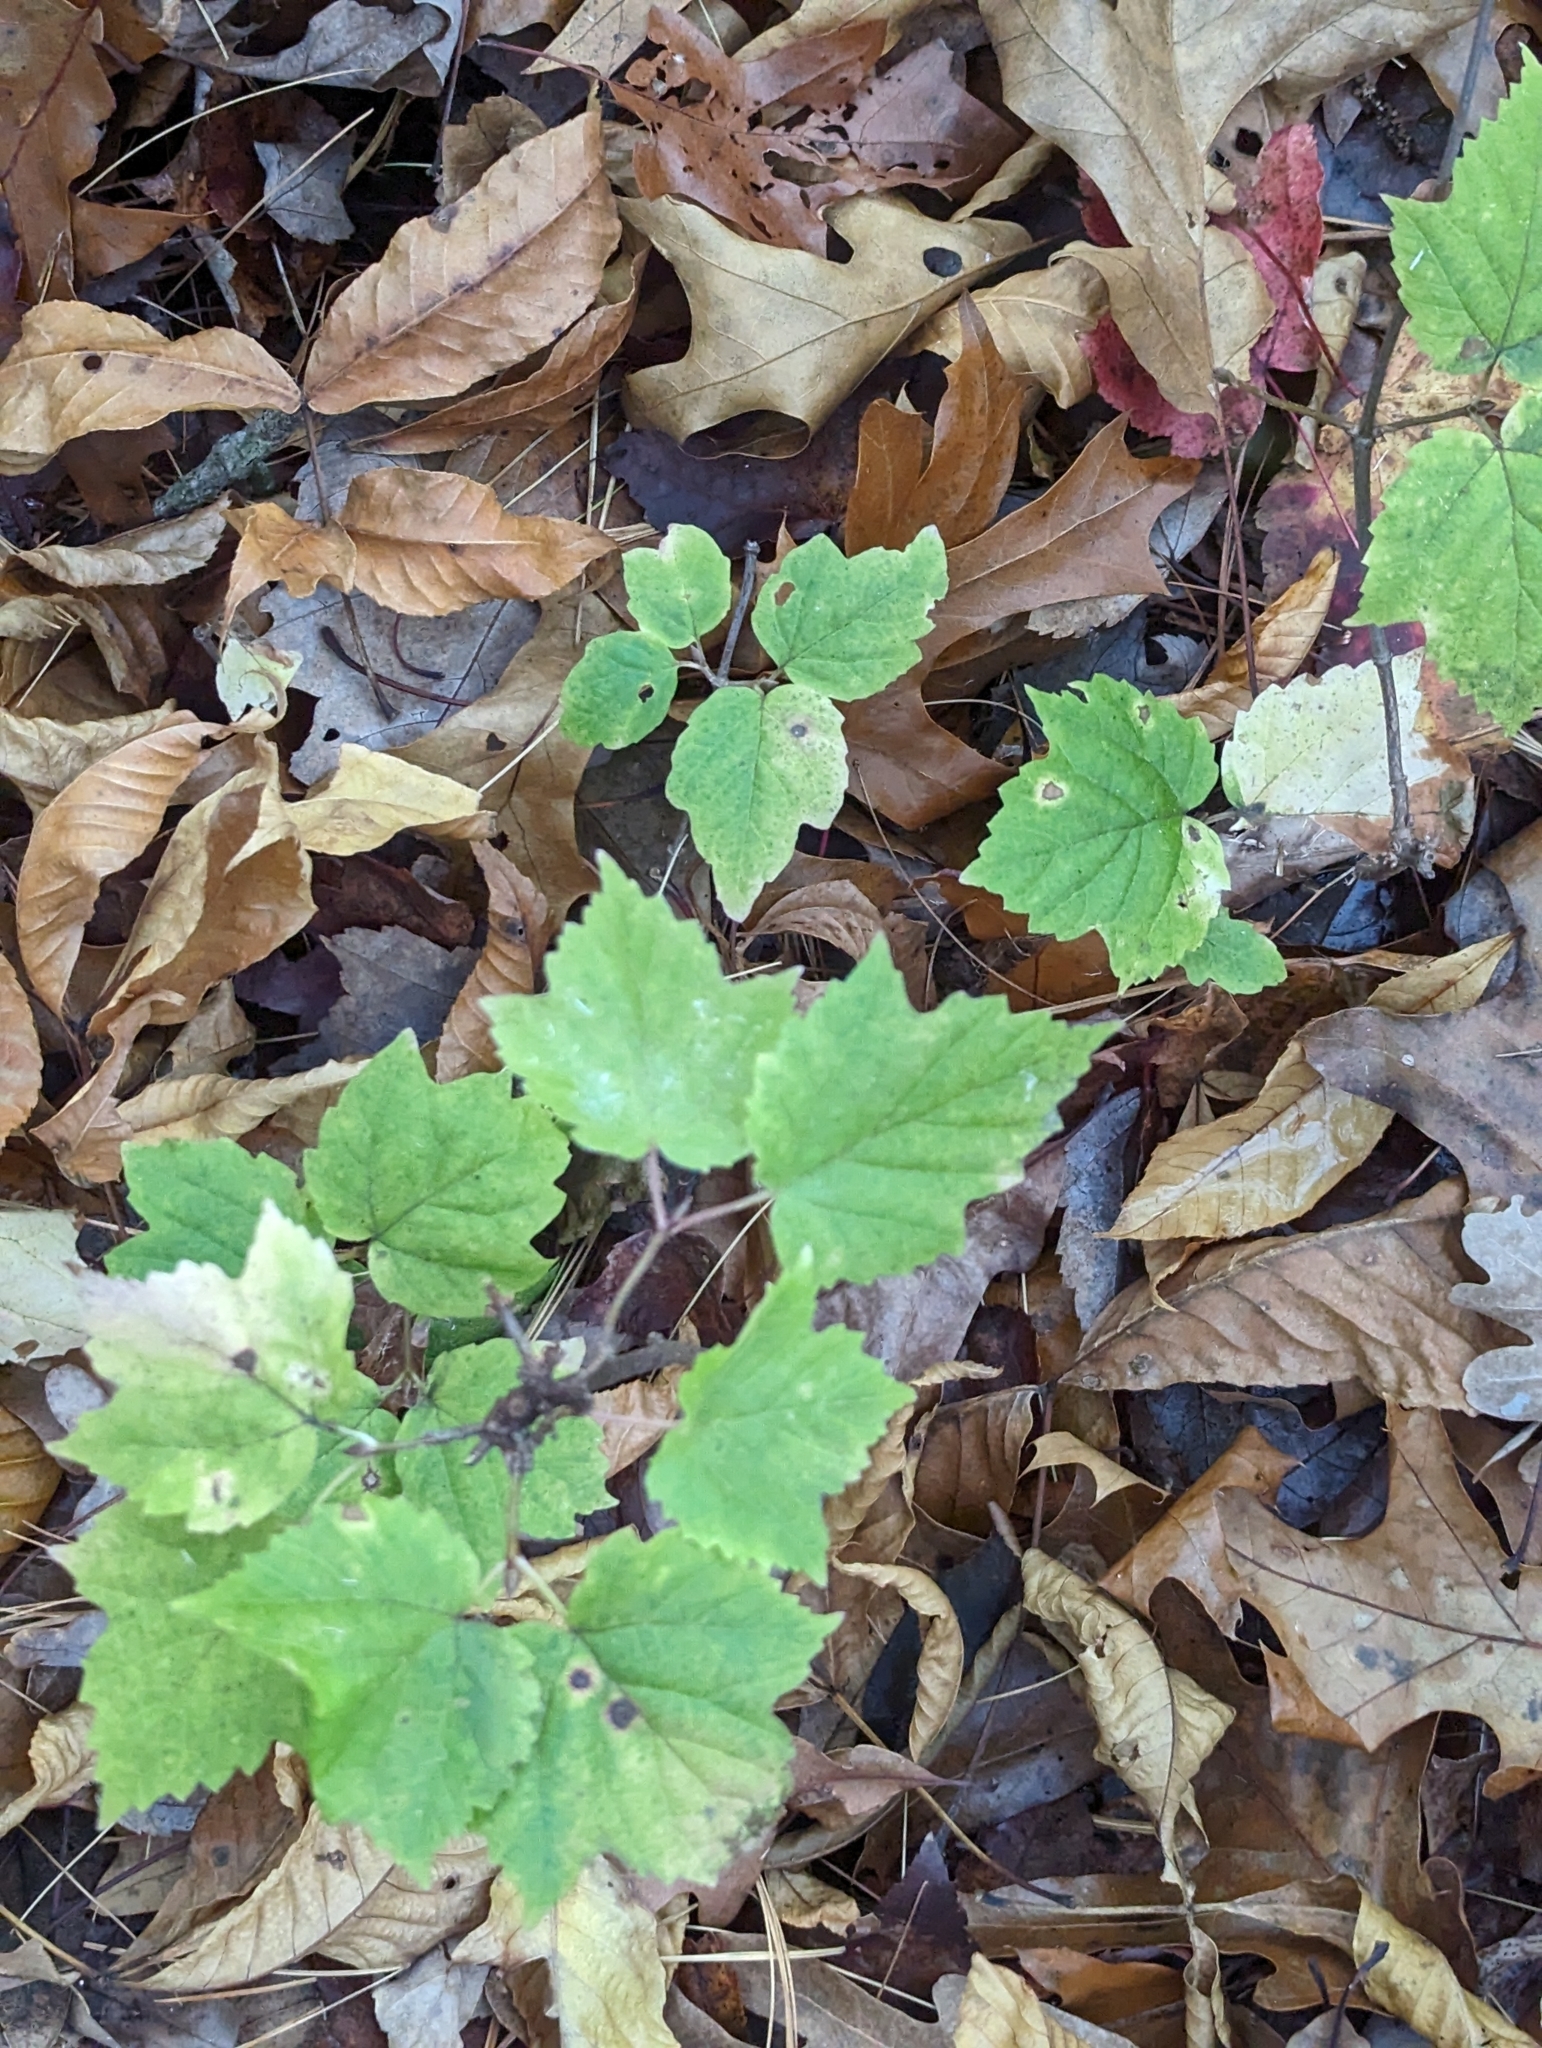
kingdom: Plantae
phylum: Tracheophyta
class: Magnoliopsida
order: Dipsacales
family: Viburnaceae
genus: Viburnum
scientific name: Viburnum acerifolium
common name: Dockmackie
